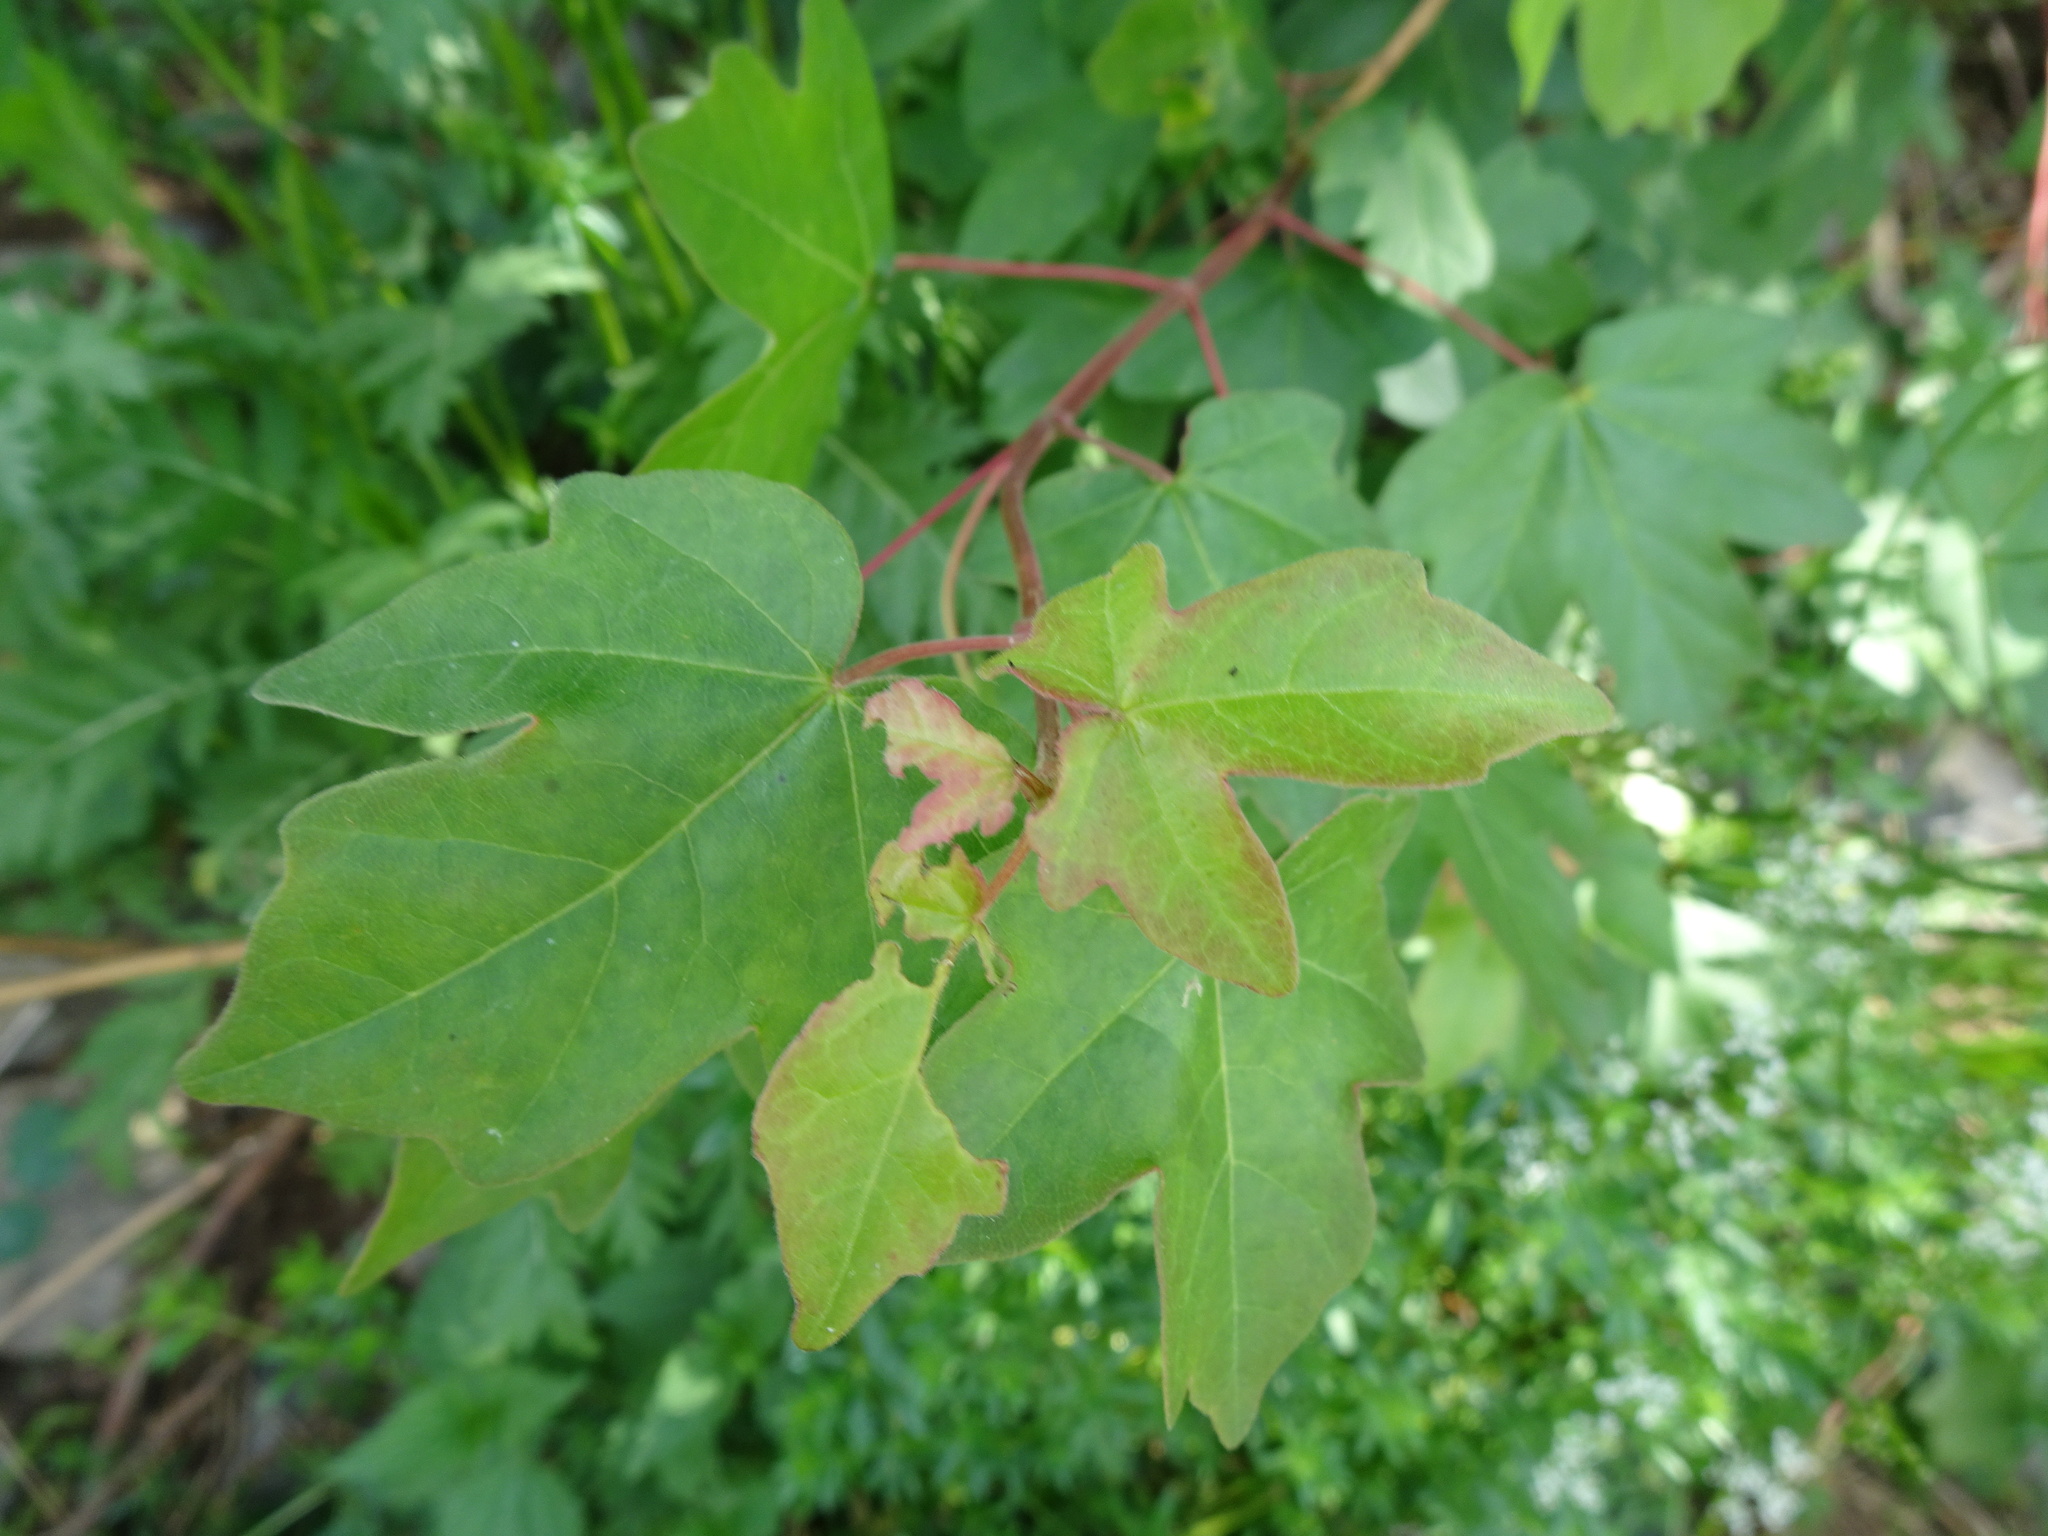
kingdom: Plantae
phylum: Tracheophyta
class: Magnoliopsida
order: Sapindales
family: Sapindaceae
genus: Acer
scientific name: Acer campestre
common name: Field maple
